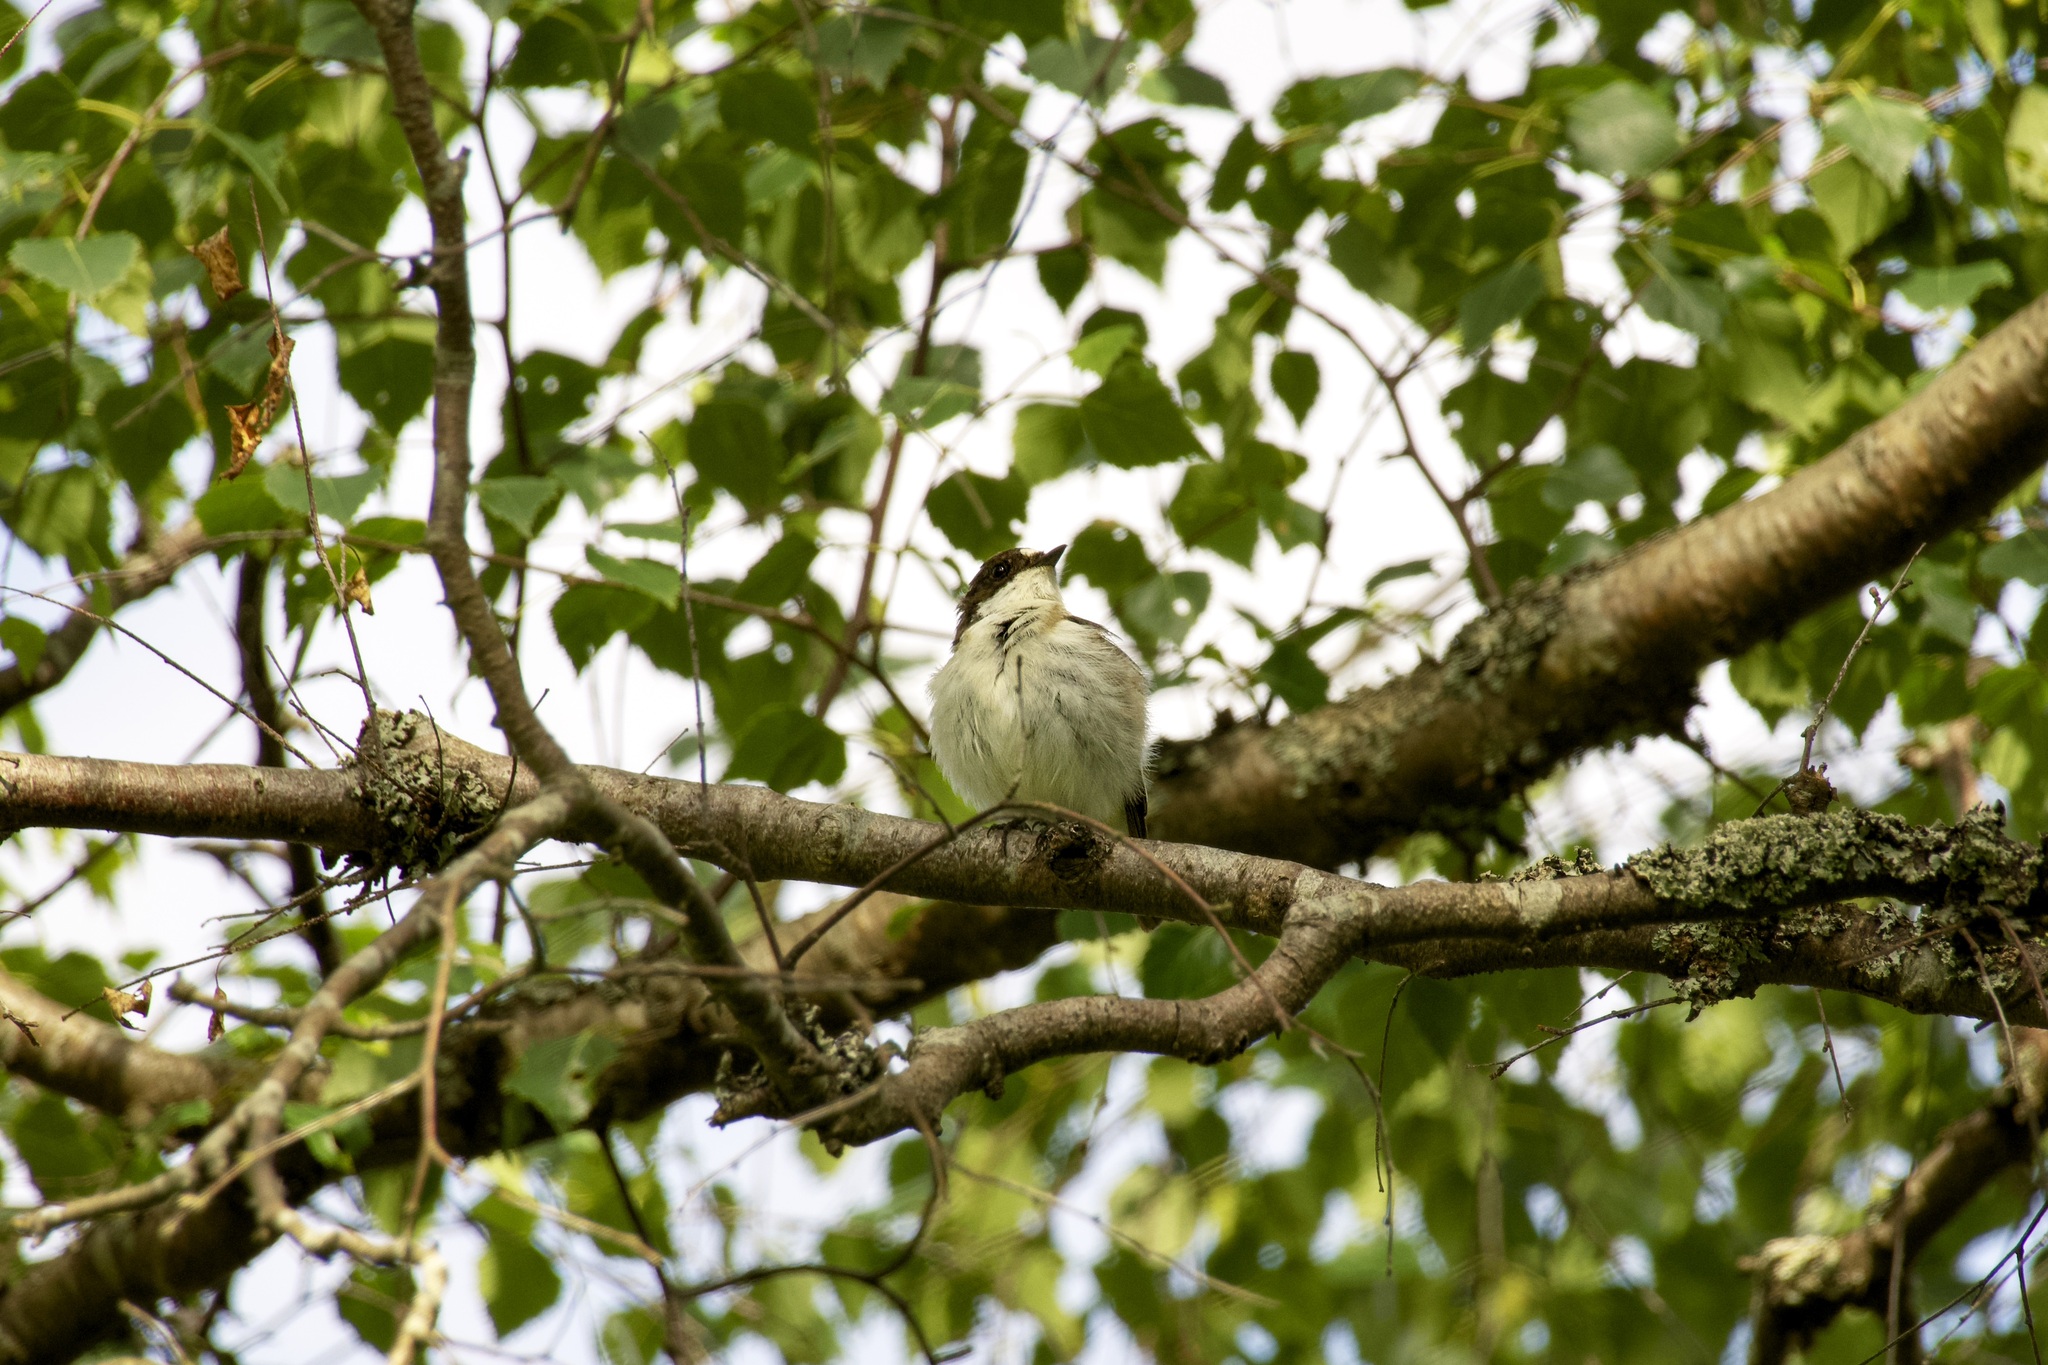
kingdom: Animalia
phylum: Chordata
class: Aves
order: Passeriformes
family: Muscicapidae
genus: Ficedula
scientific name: Ficedula hypoleuca
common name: European pied flycatcher
